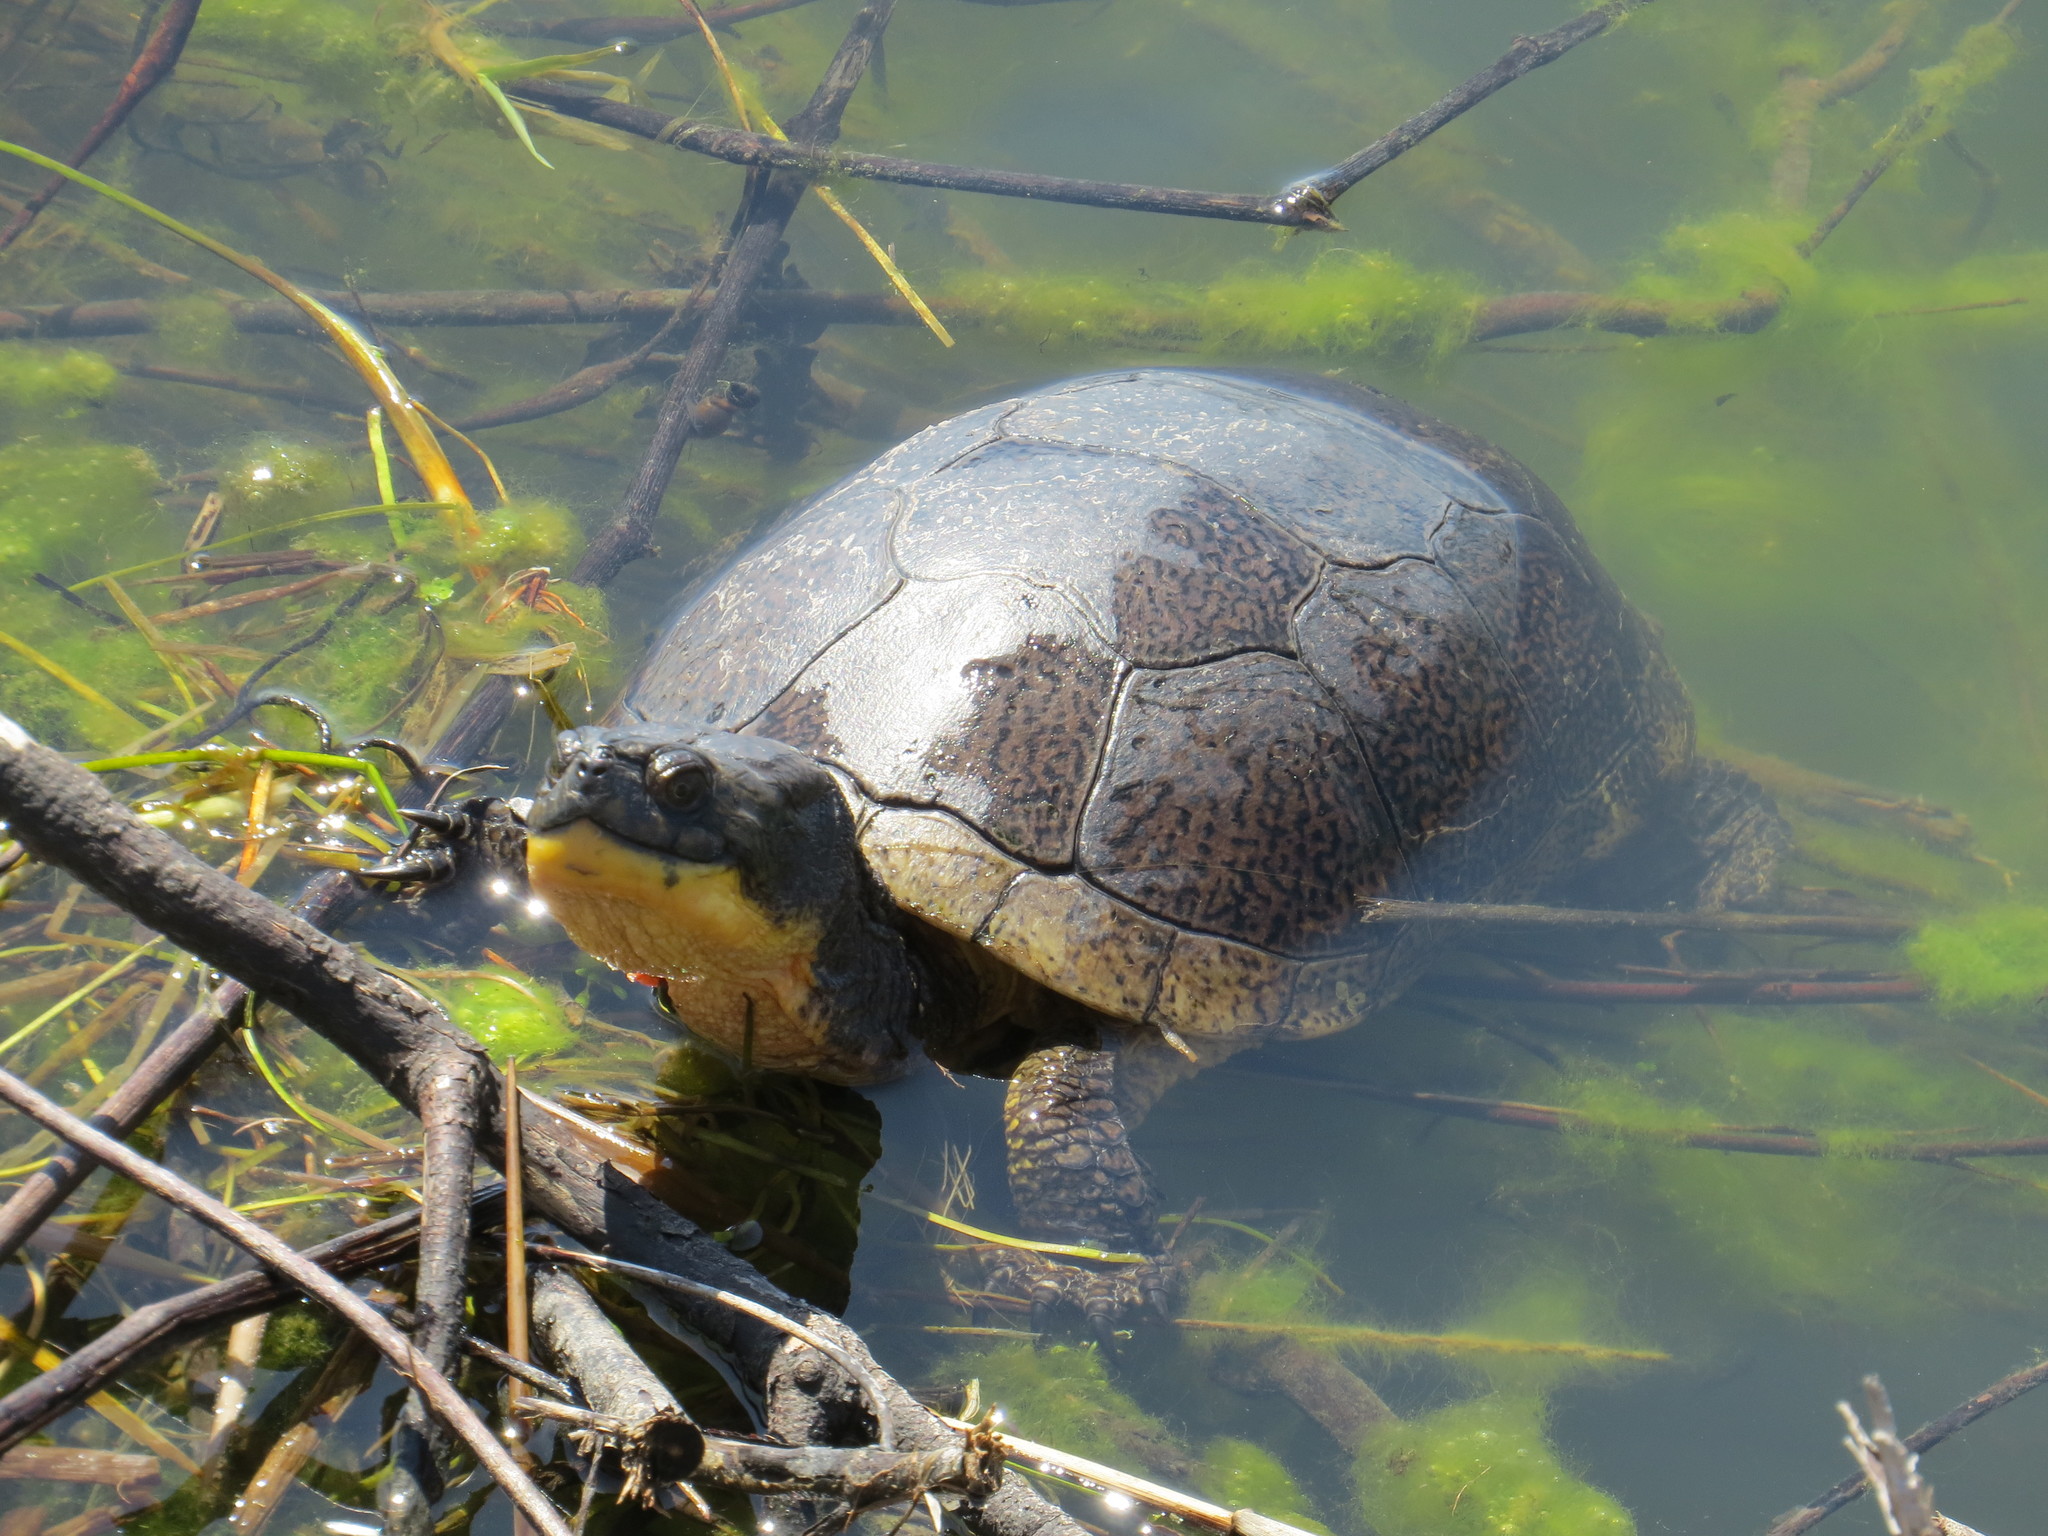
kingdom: Animalia
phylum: Chordata
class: Testudines
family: Emydidae
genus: Emys
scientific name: Emys blandingii
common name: Blanding's turtle
